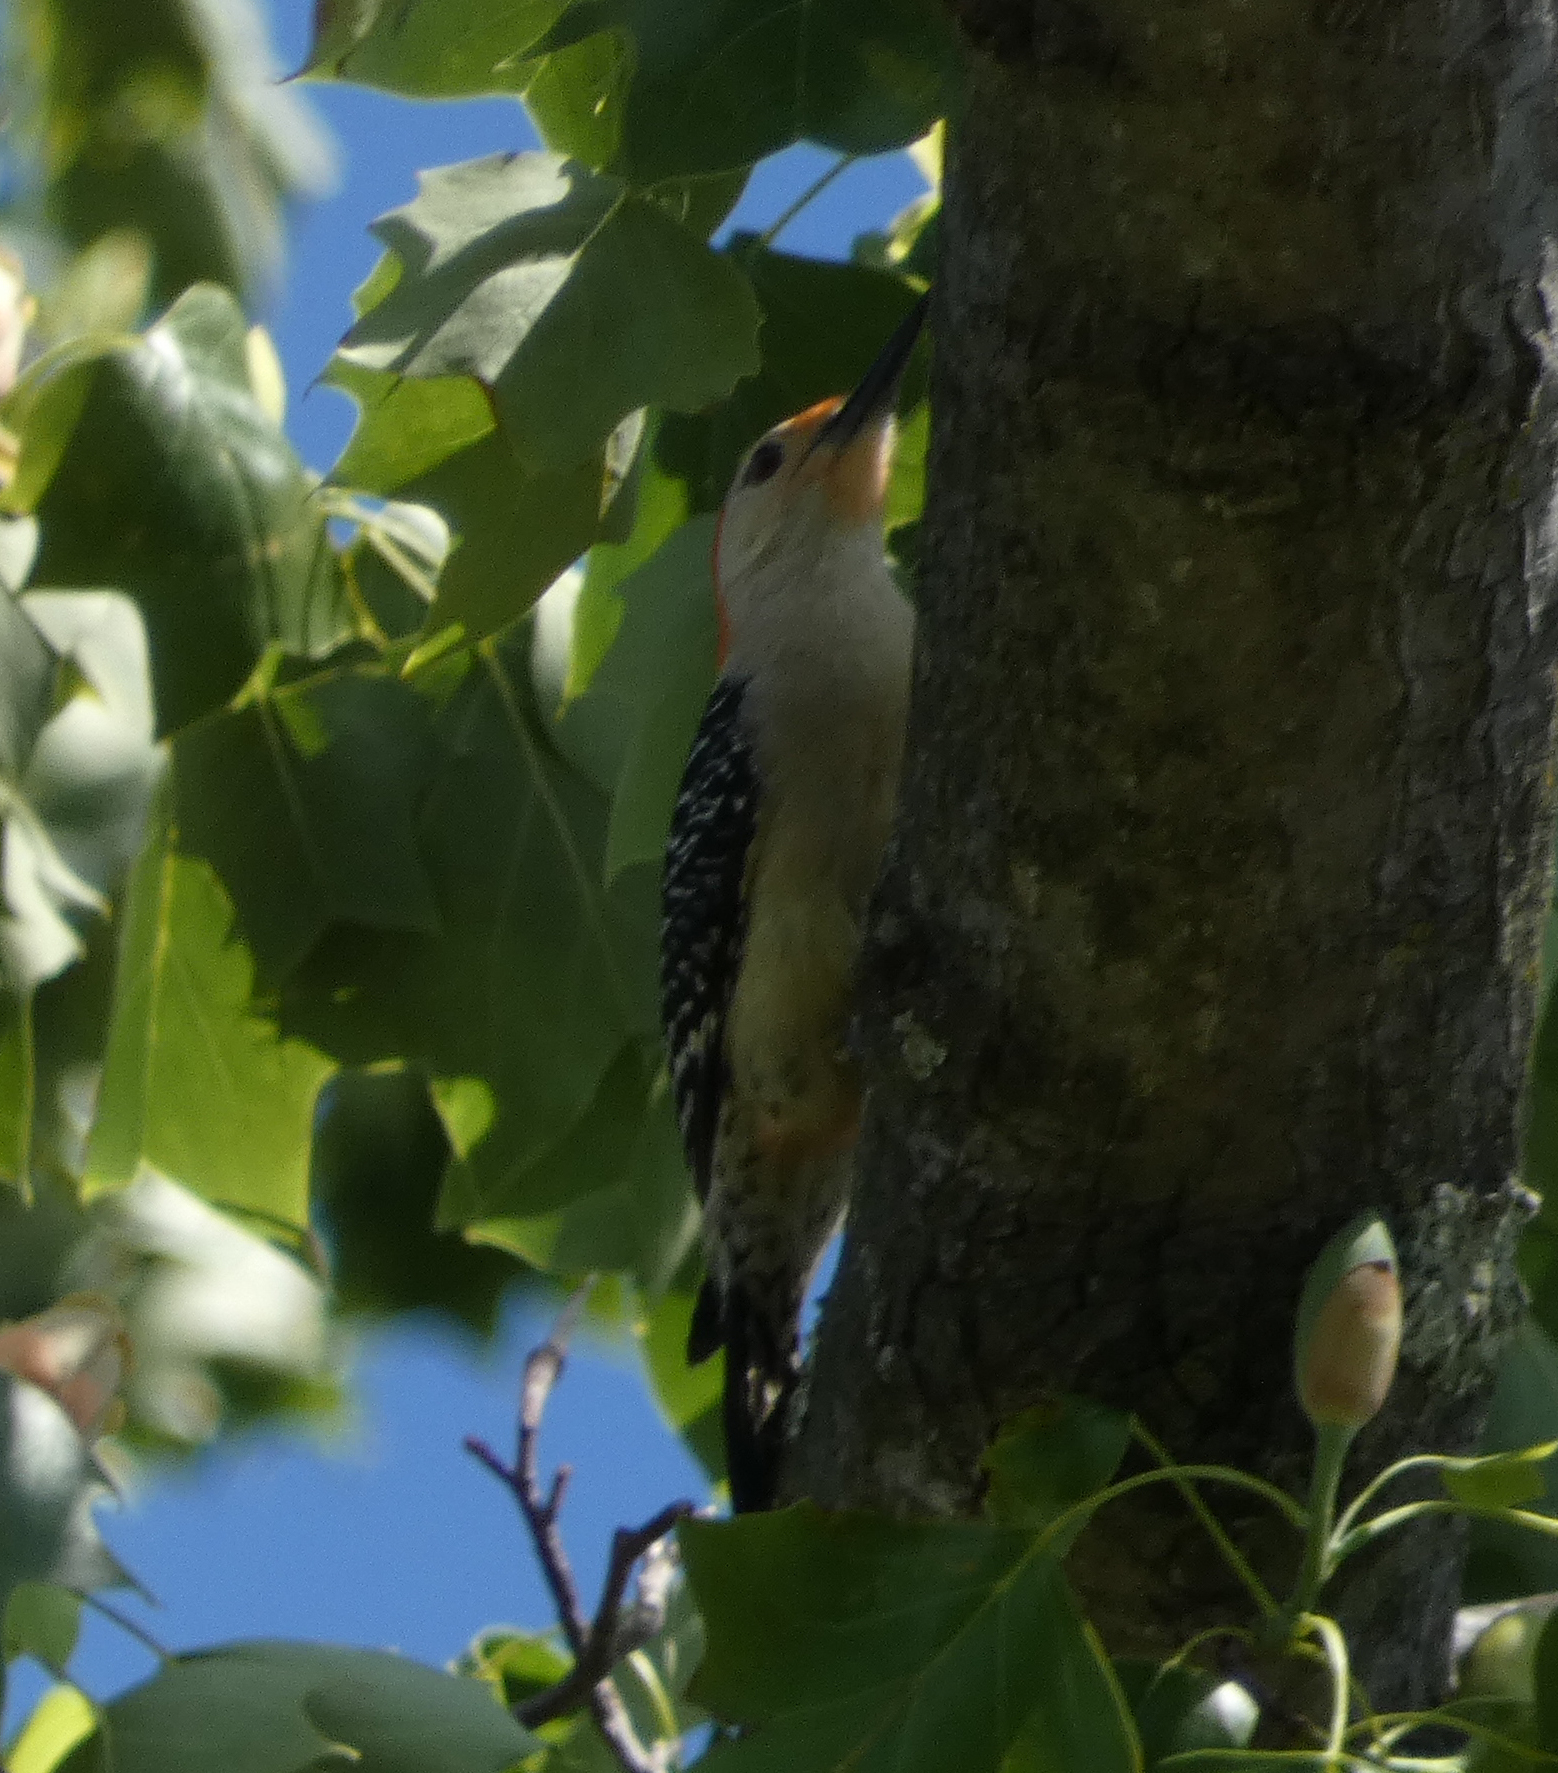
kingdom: Animalia
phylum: Chordata
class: Aves
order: Piciformes
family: Picidae
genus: Melanerpes
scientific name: Melanerpes carolinus
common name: Red-bellied woodpecker
